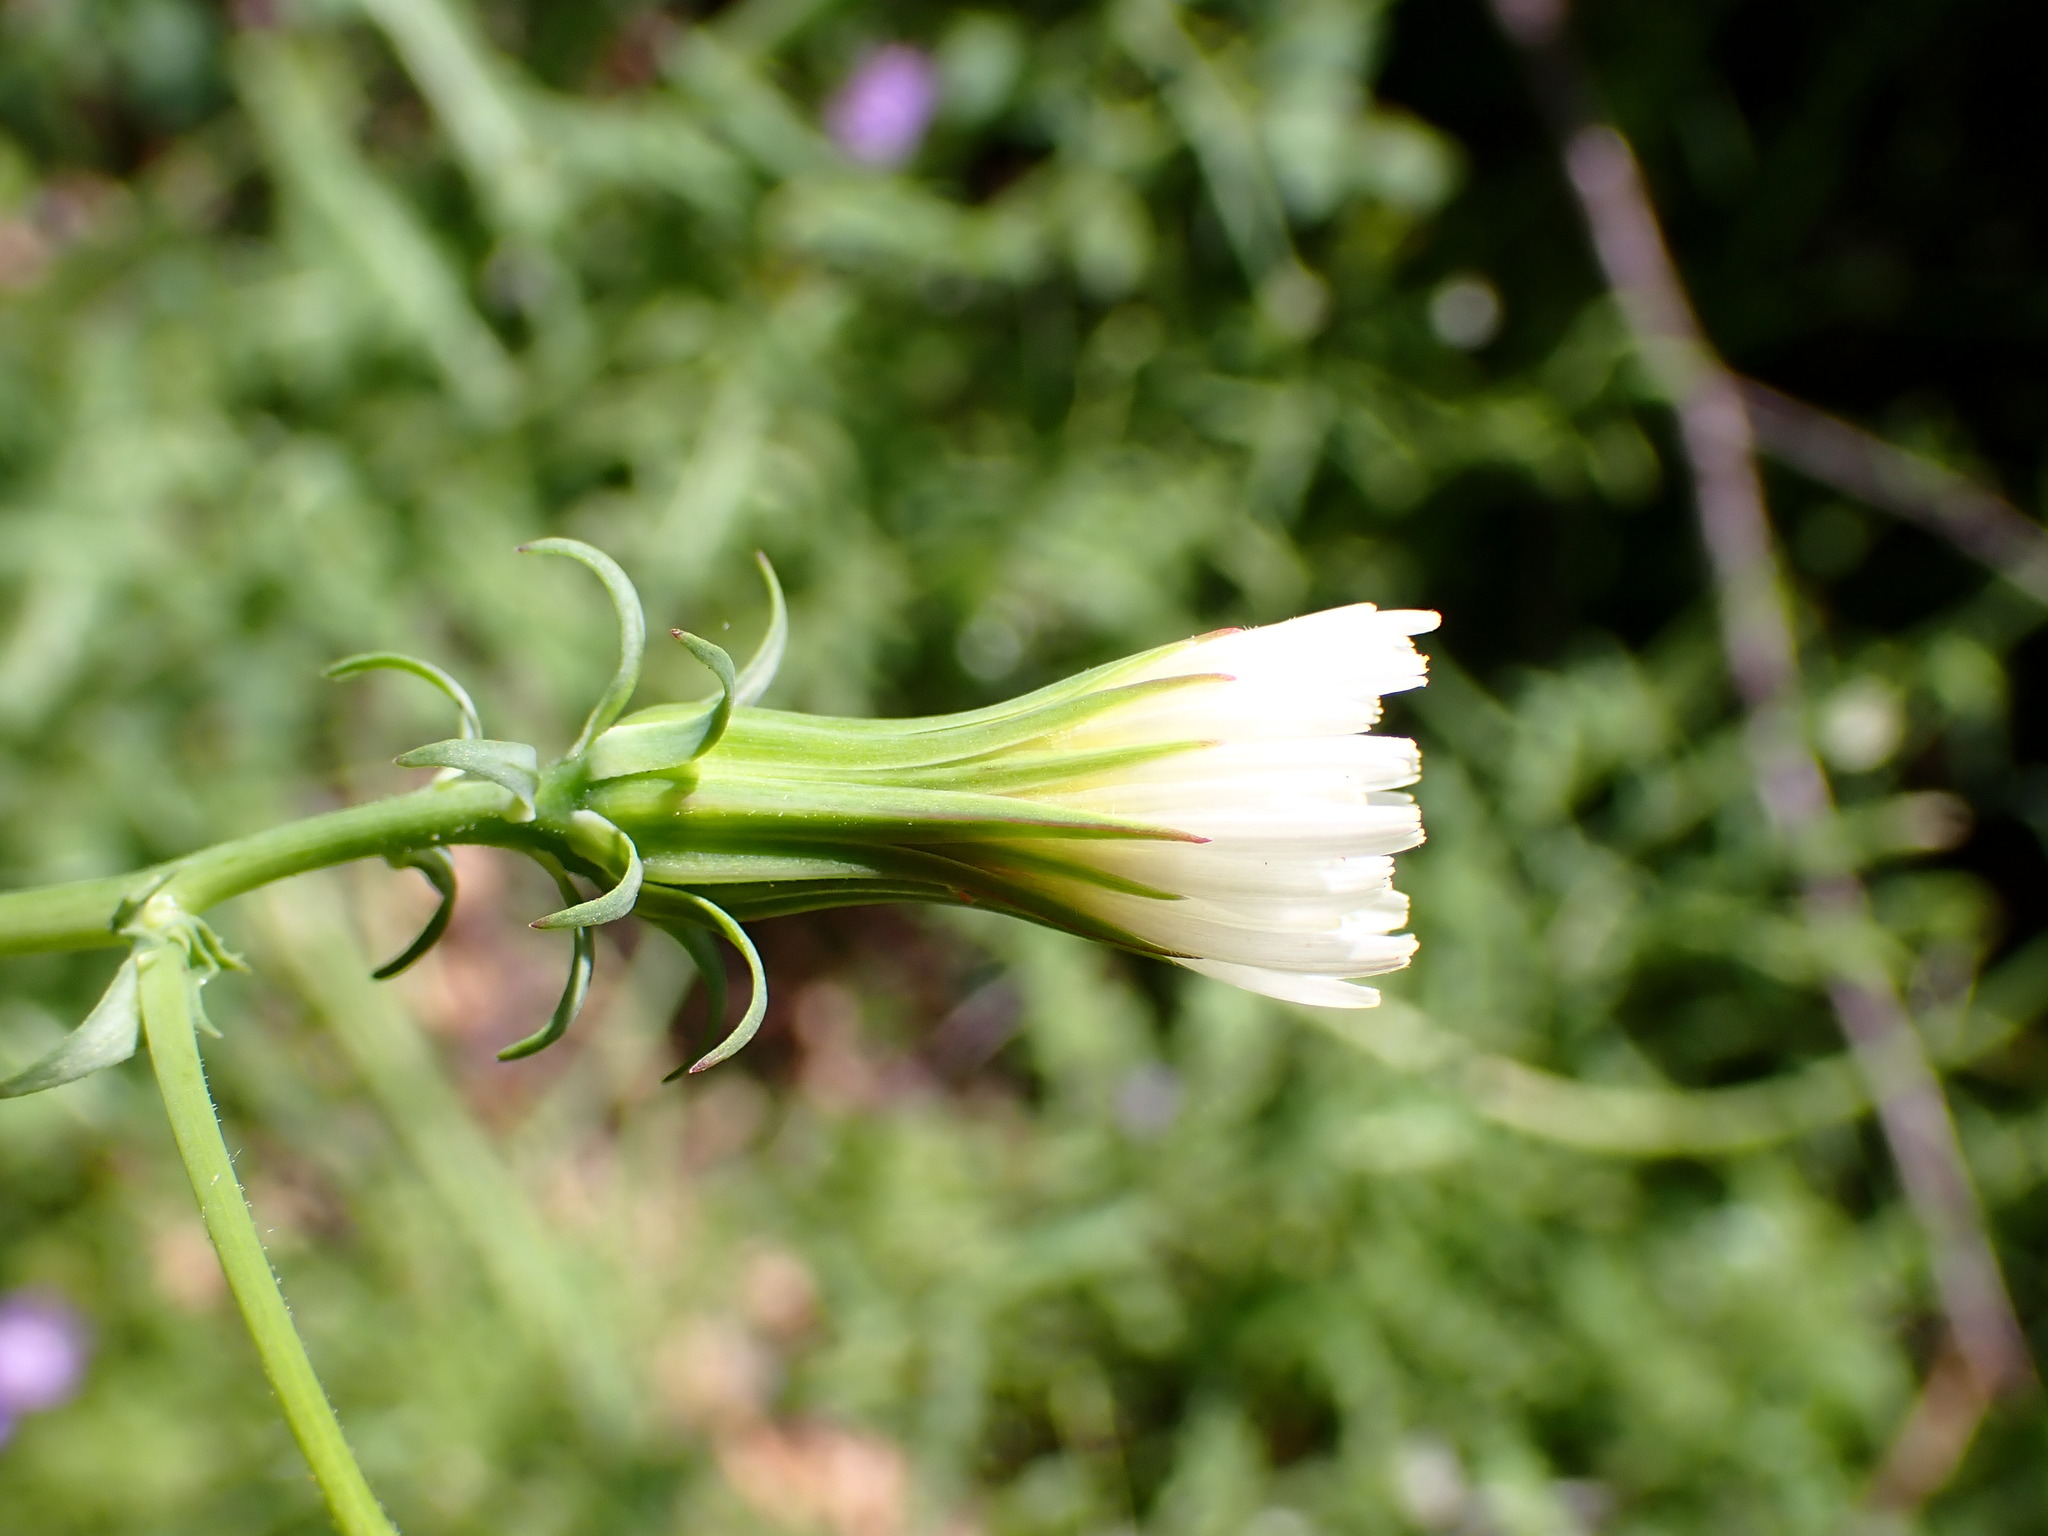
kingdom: Plantae
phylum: Tracheophyta
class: Magnoliopsida
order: Asterales
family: Asteraceae
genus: Rafinesquia
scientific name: Rafinesquia californica
